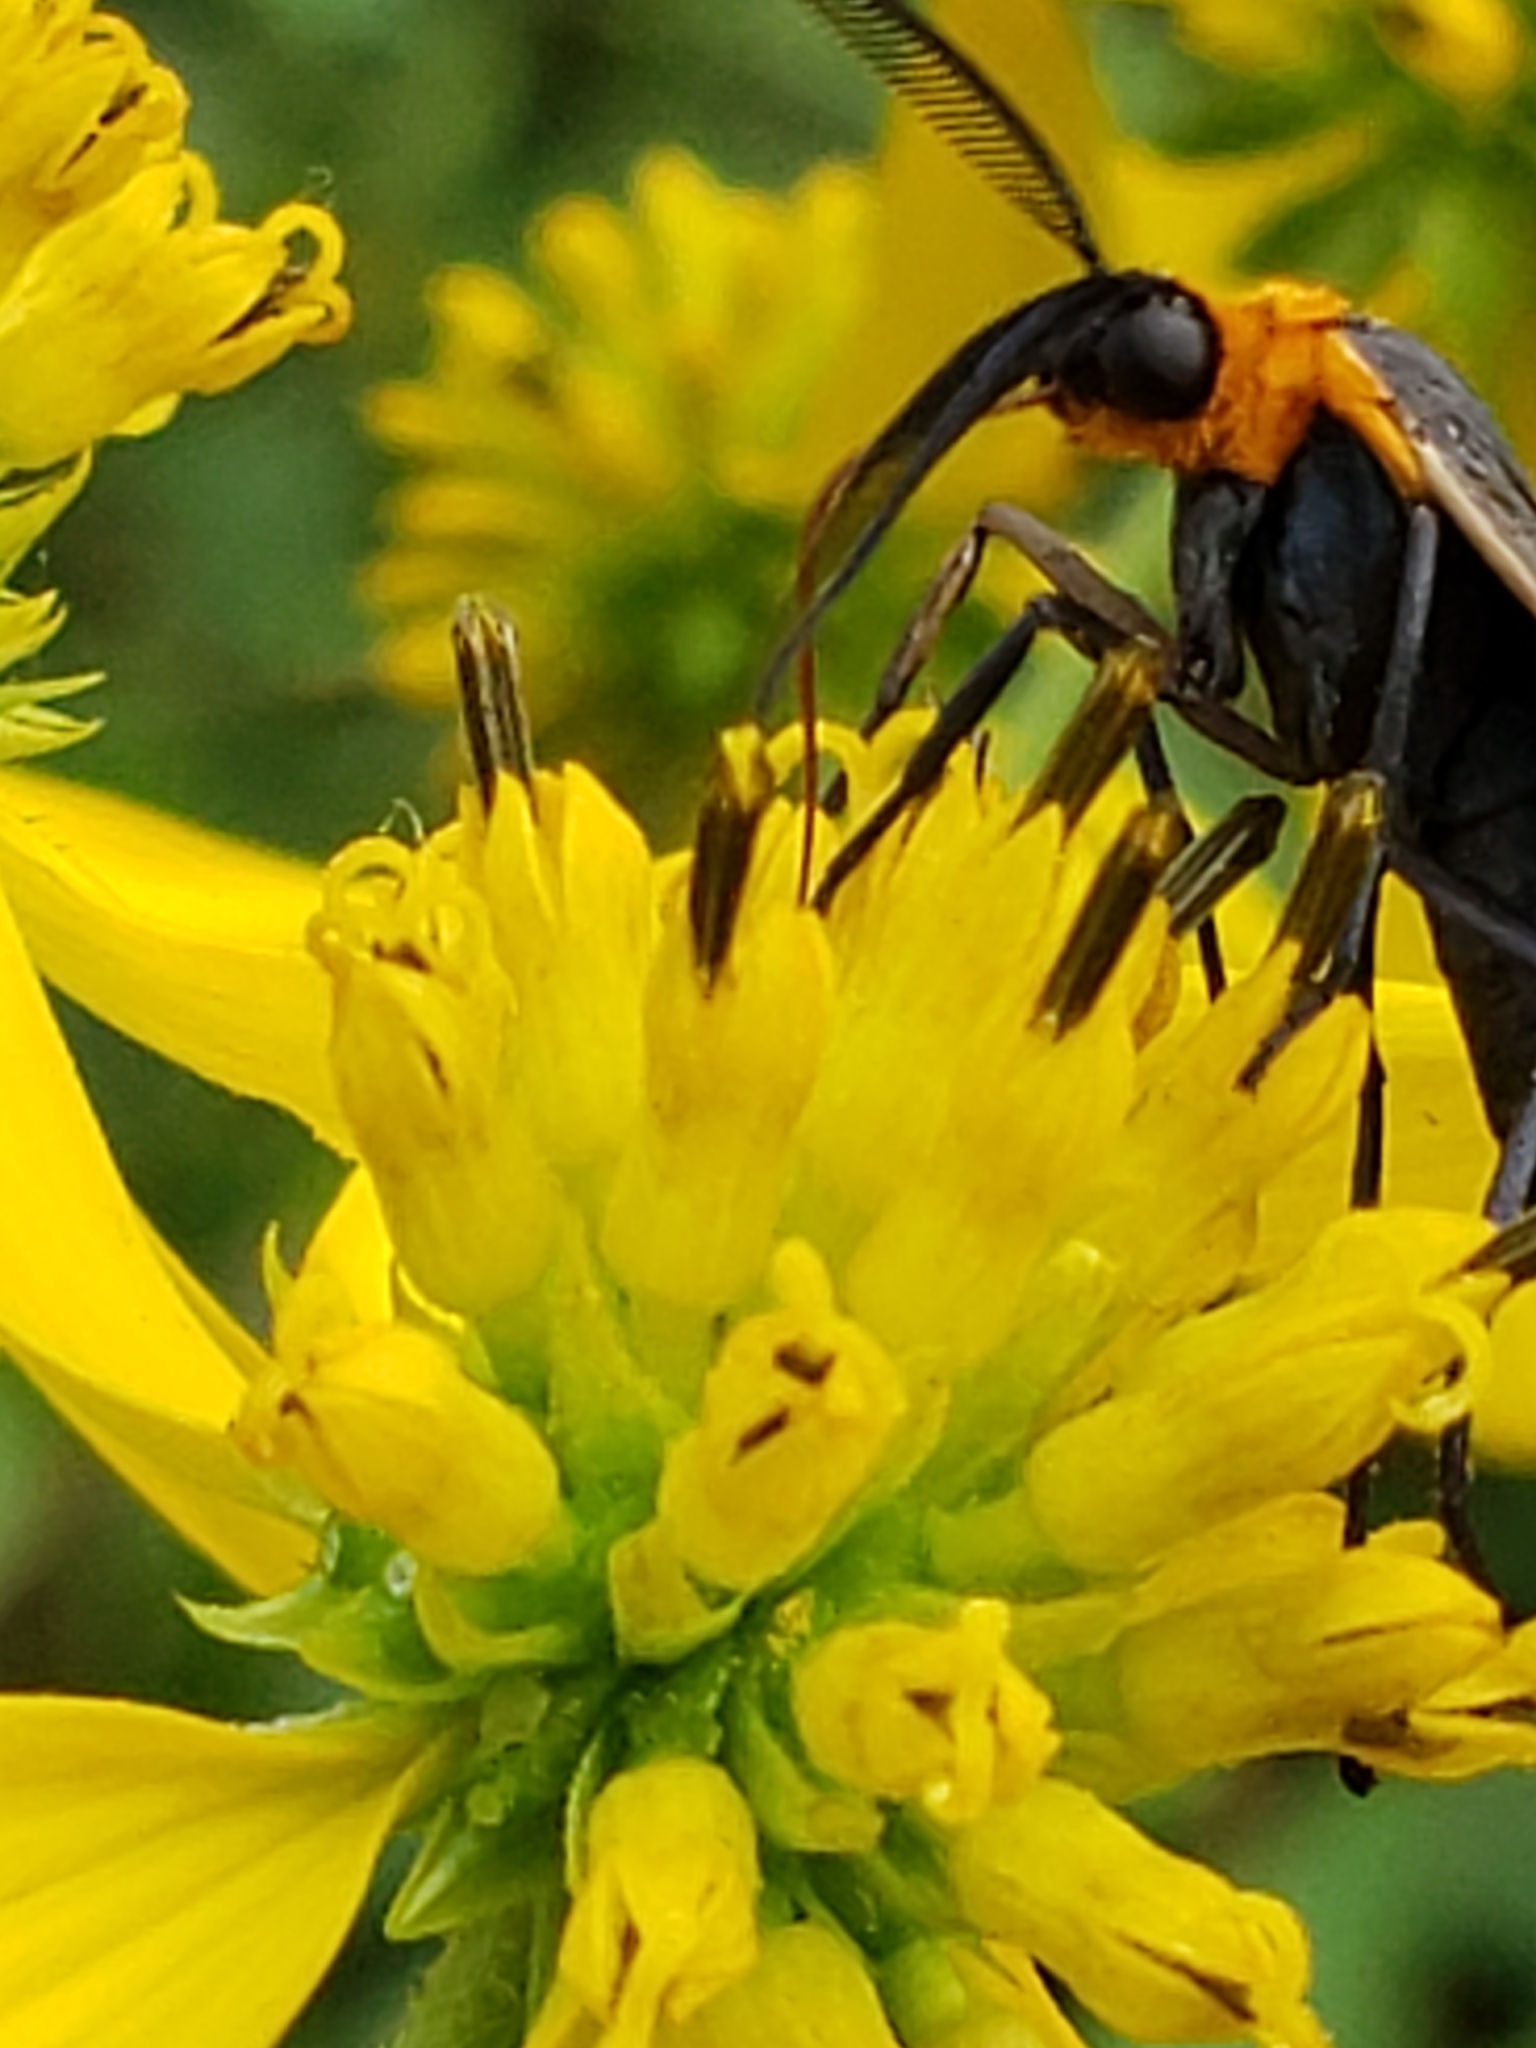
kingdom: Animalia
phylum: Arthropoda
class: Insecta
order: Lepidoptera
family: Erebidae
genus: Cisseps
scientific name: Cisseps fulvicollis
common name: Yellow-collared scape moth
